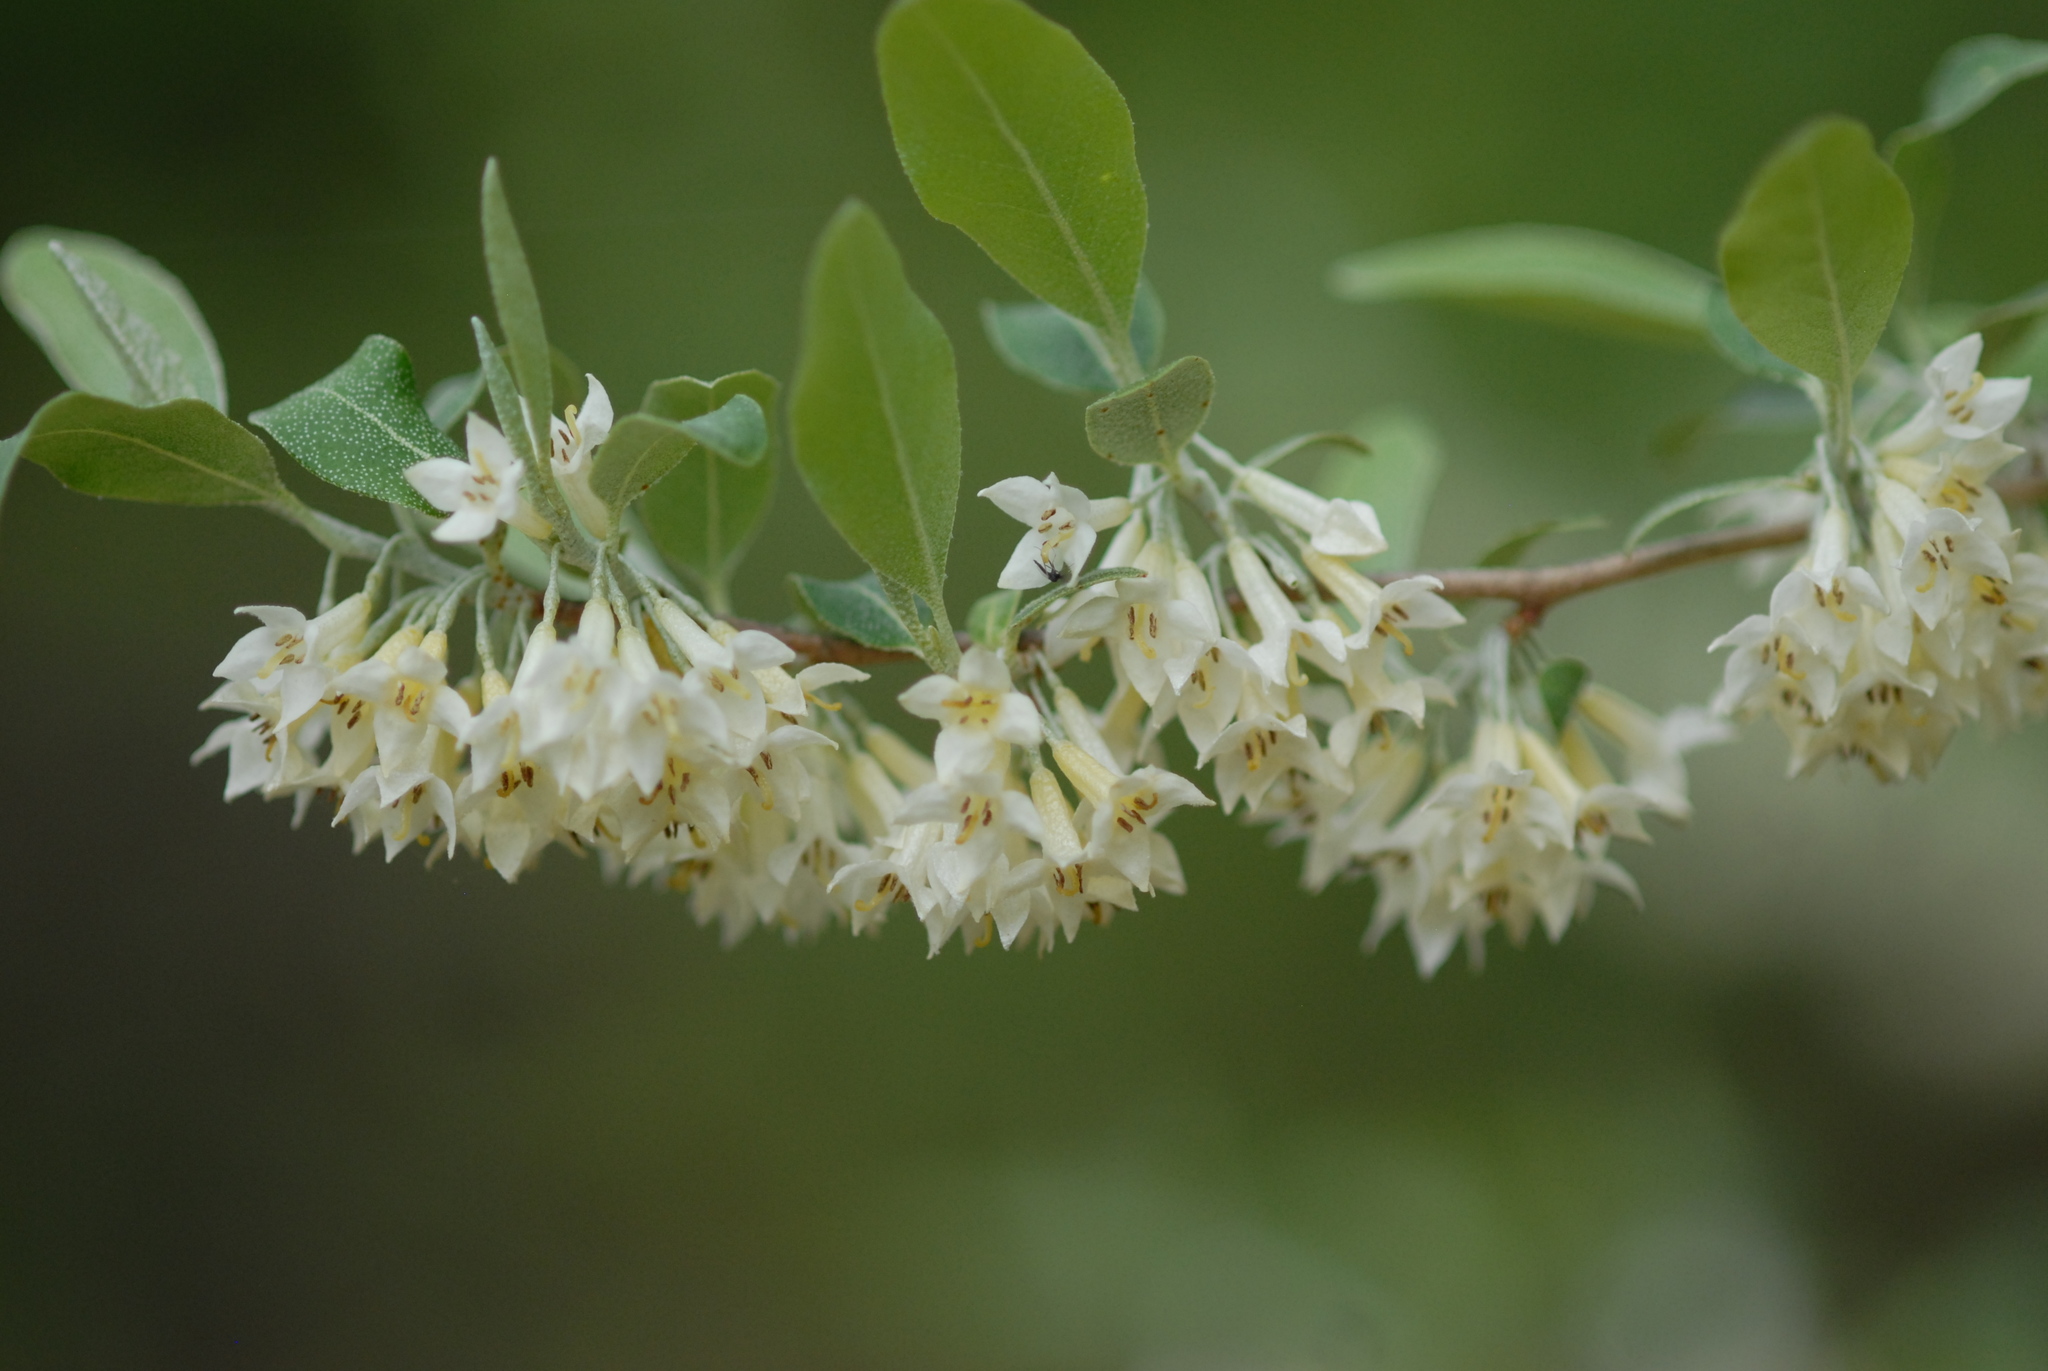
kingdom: Plantae
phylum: Tracheophyta
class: Magnoliopsida
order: Rosales
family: Elaeagnaceae
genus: Elaeagnus
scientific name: Elaeagnus umbellata
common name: Autumn olive
